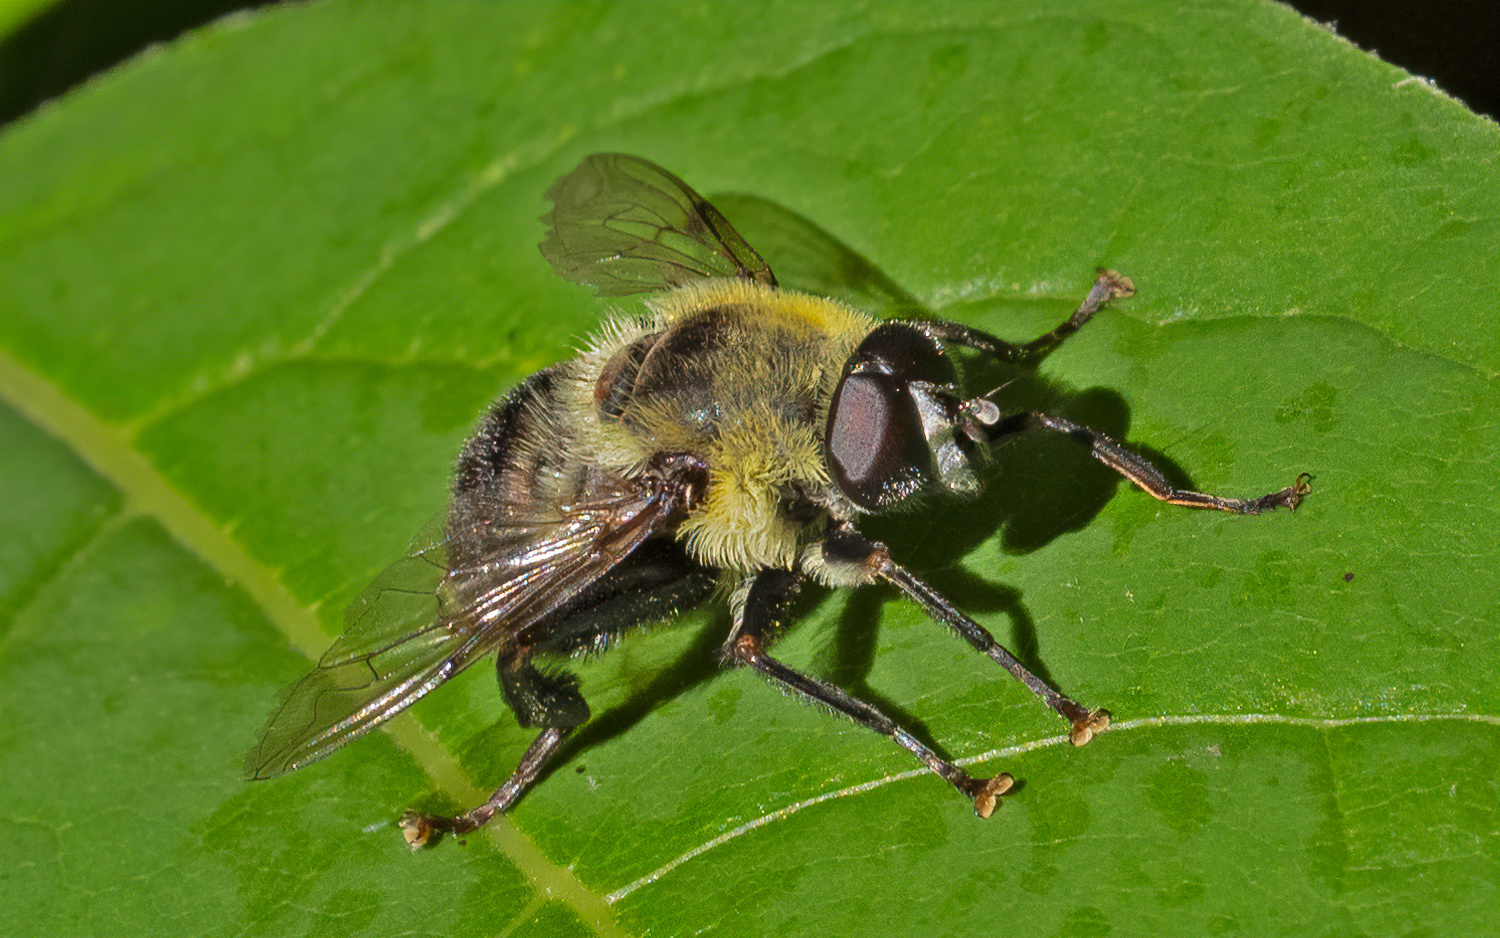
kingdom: Animalia
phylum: Arthropoda
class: Insecta
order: Diptera
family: Syrphidae
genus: Imatisma
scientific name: Imatisma posticata
